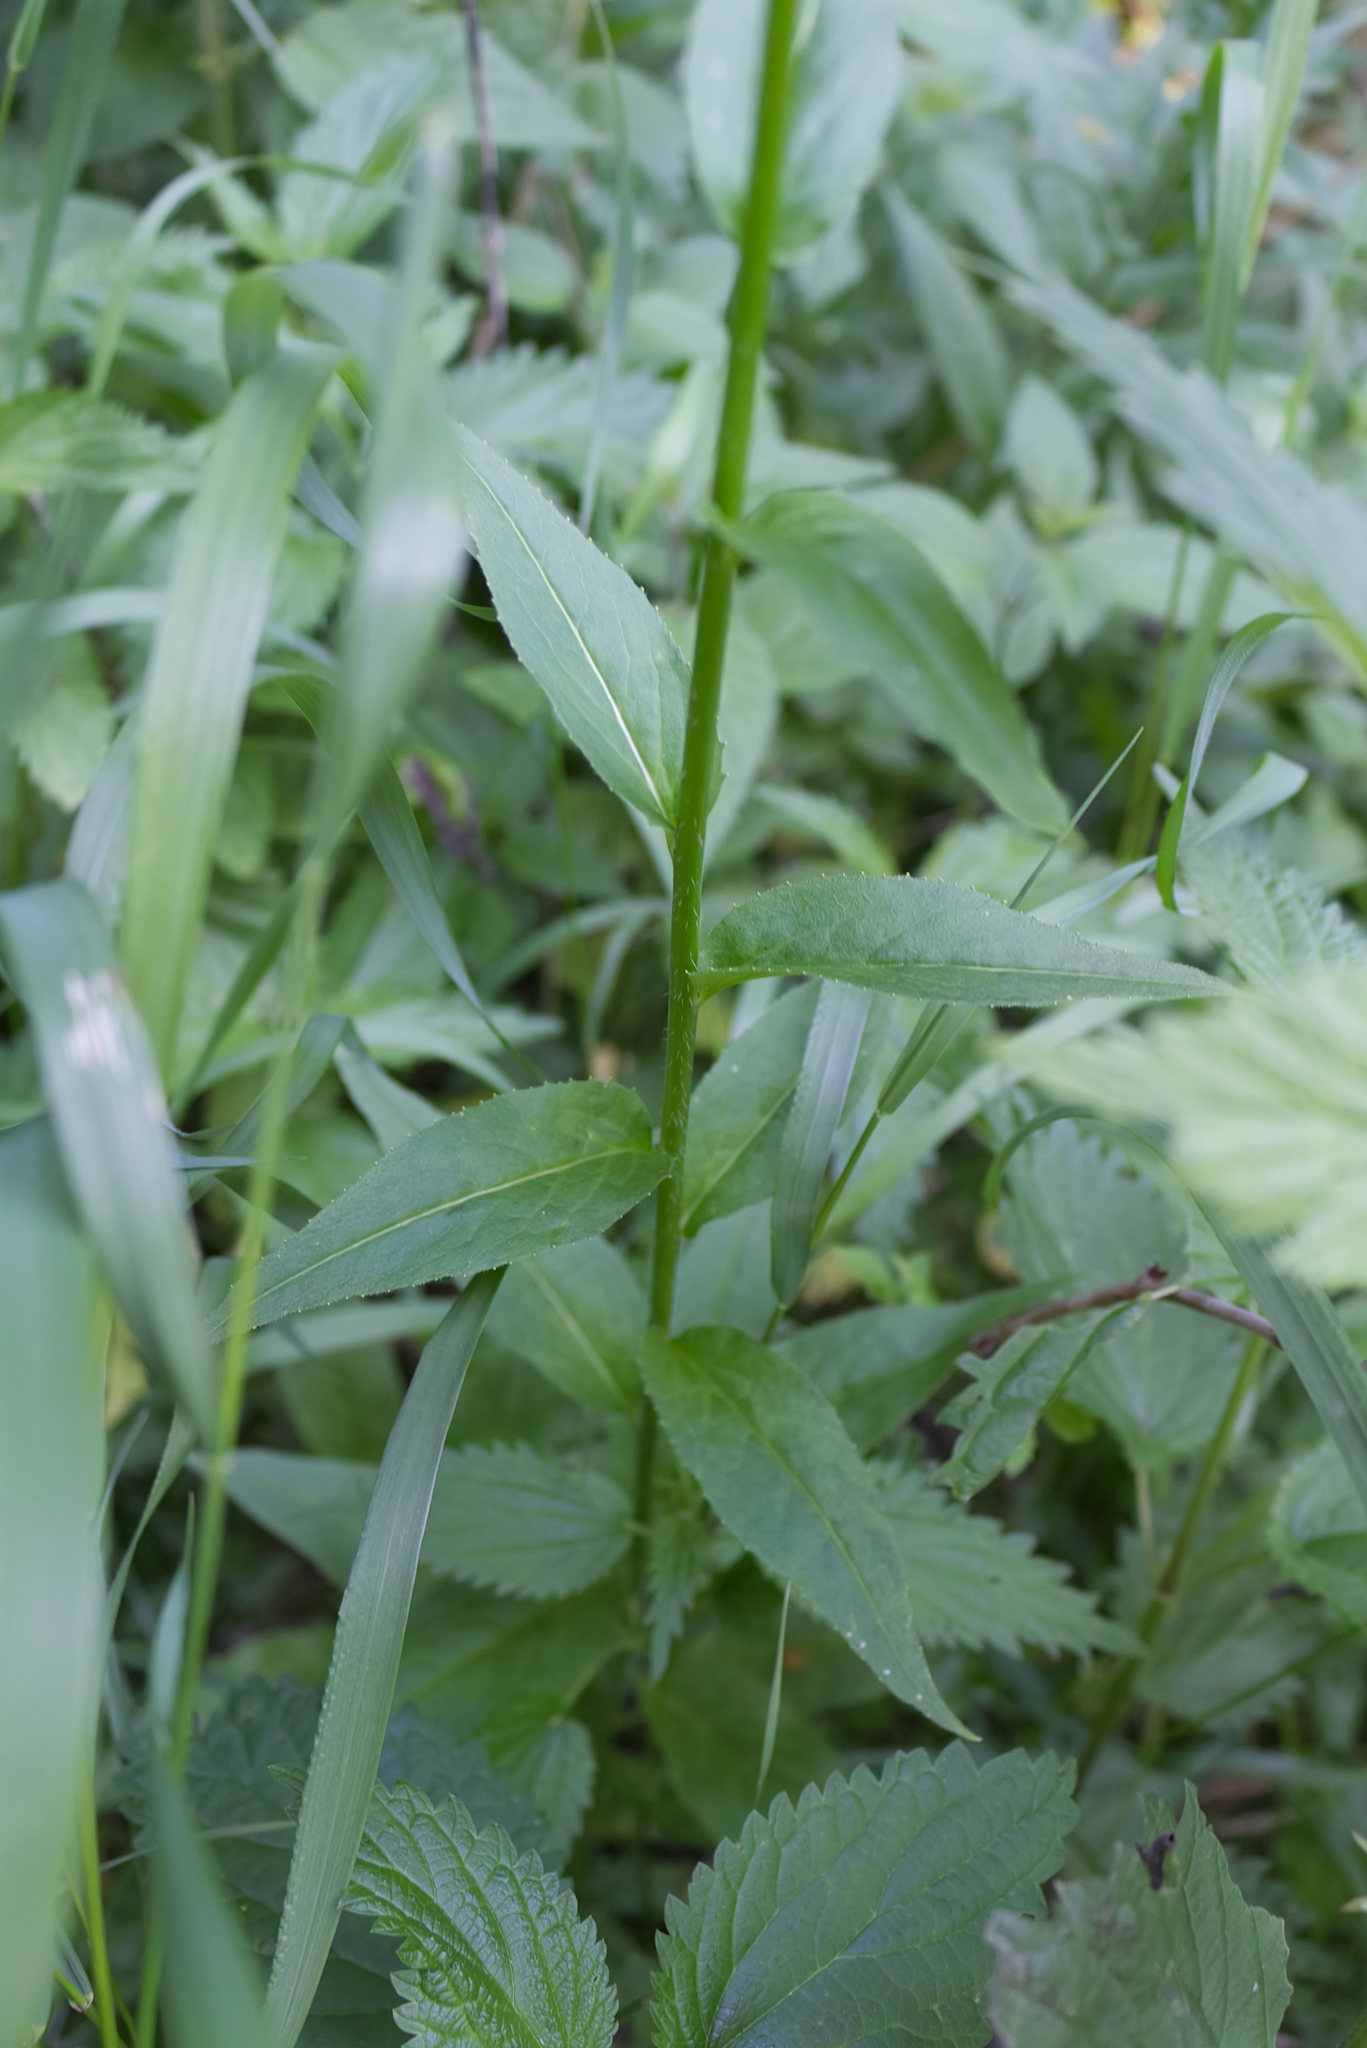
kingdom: Plantae
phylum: Tracheophyta
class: Magnoliopsida
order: Brassicales
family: Brassicaceae
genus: Hesperis
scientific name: Hesperis matronalis
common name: Dame's-violet
